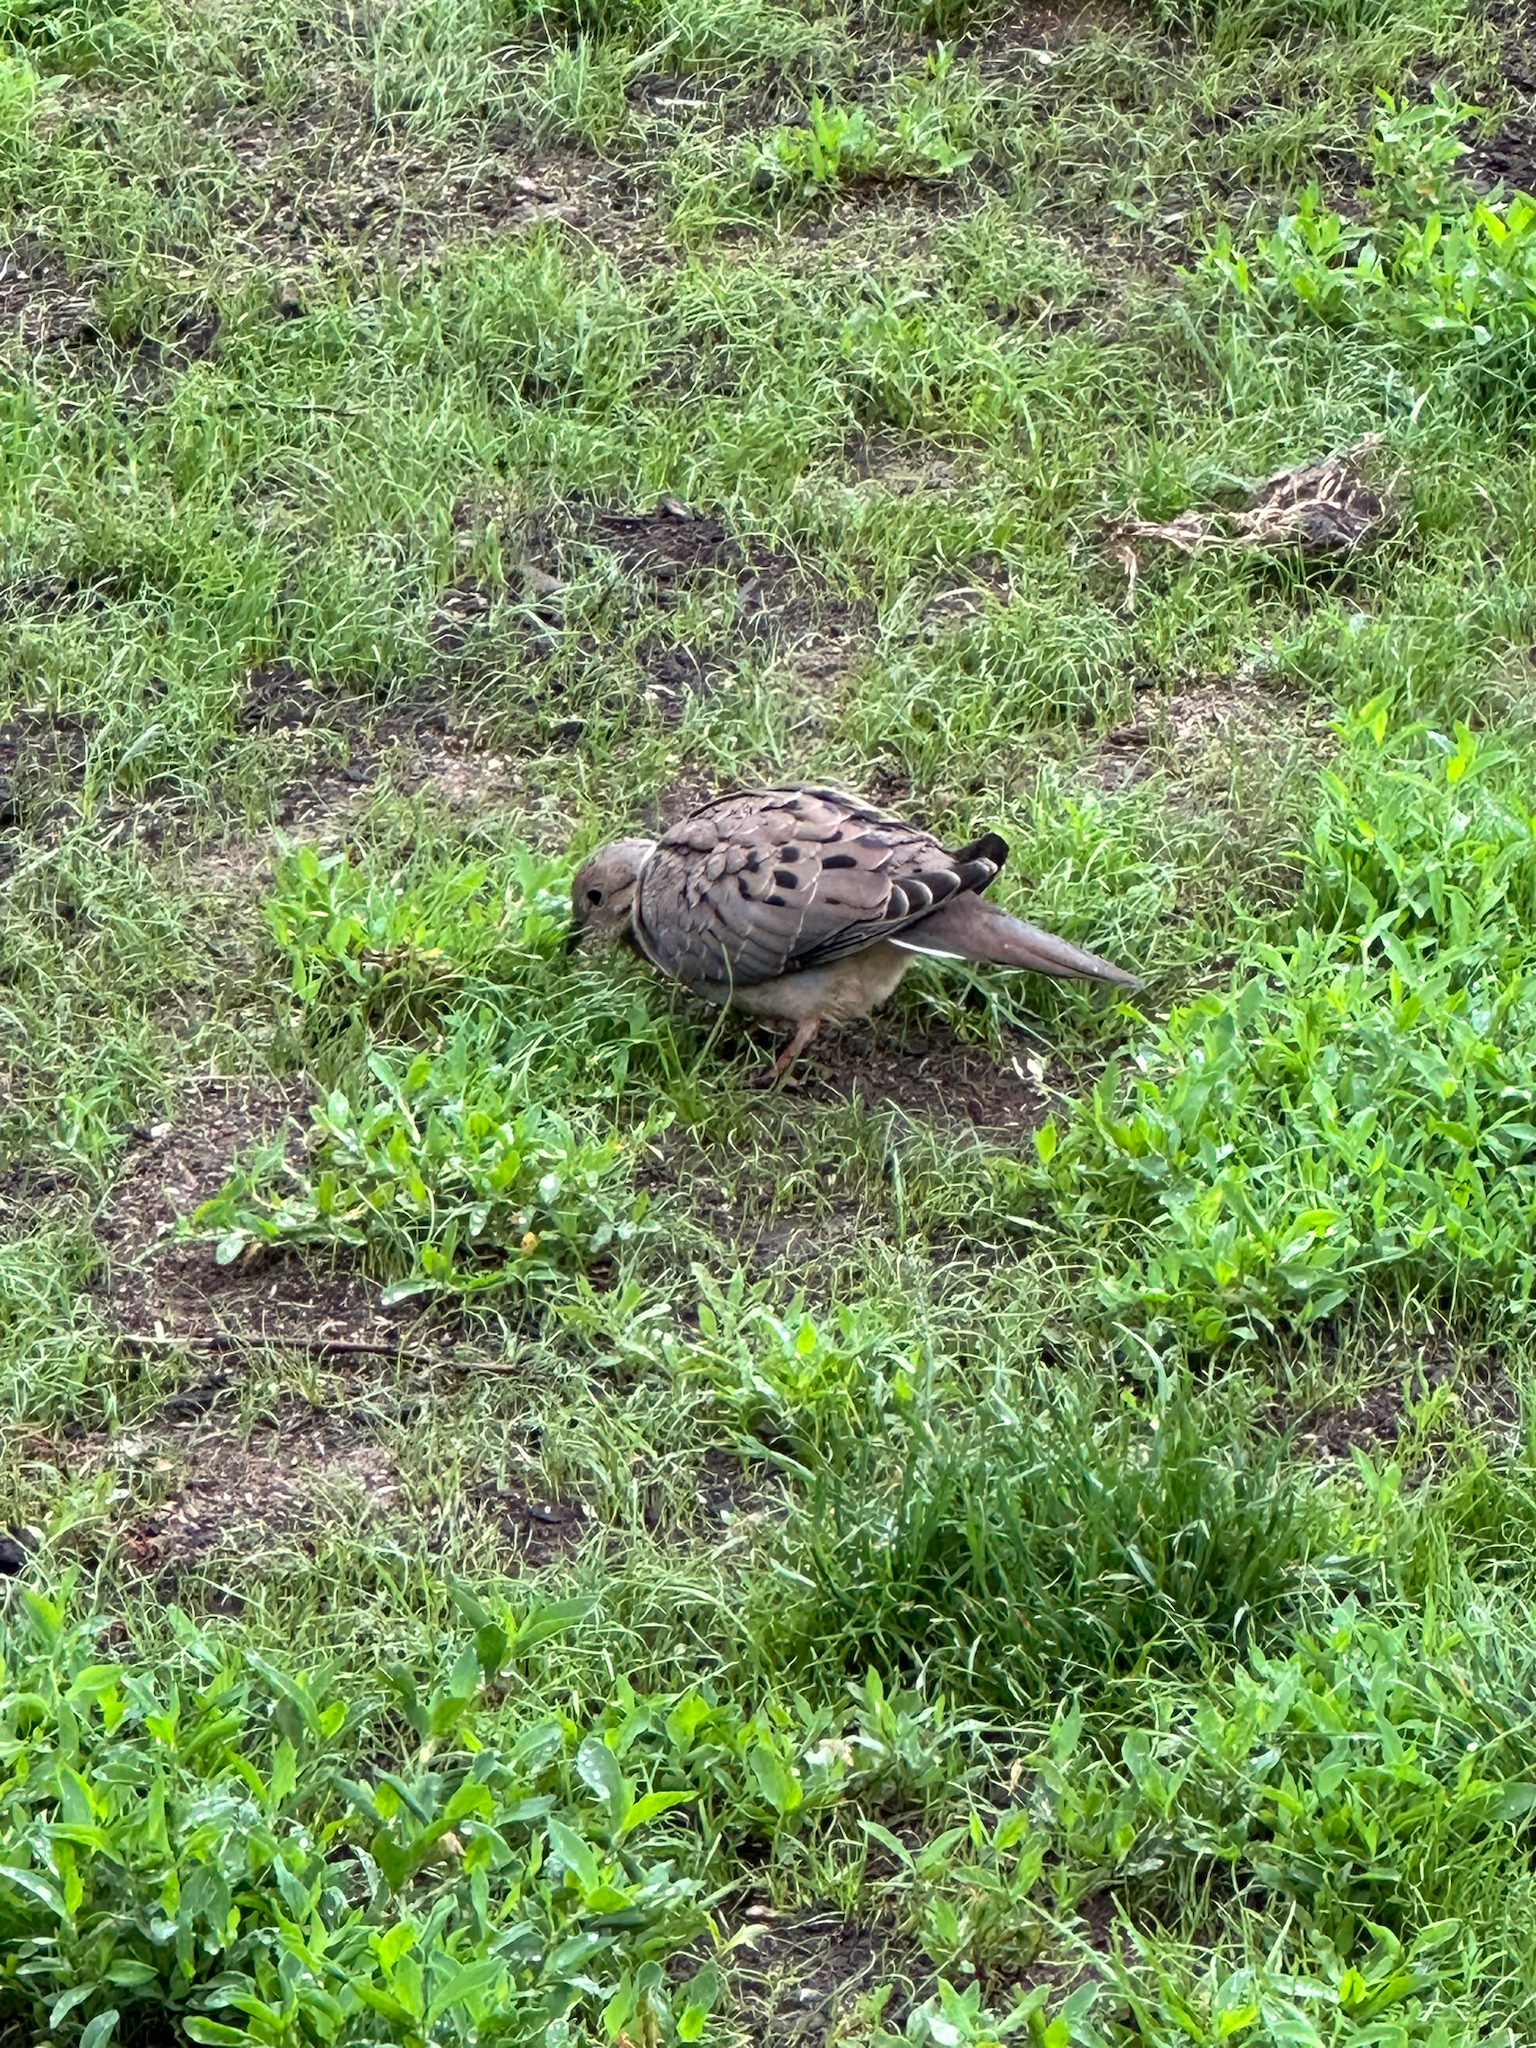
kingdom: Animalia
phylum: Chordata
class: Aves
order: Columbiformes
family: Columbidae
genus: Zenaida
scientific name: Zenaida macroura
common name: Mourning dove
